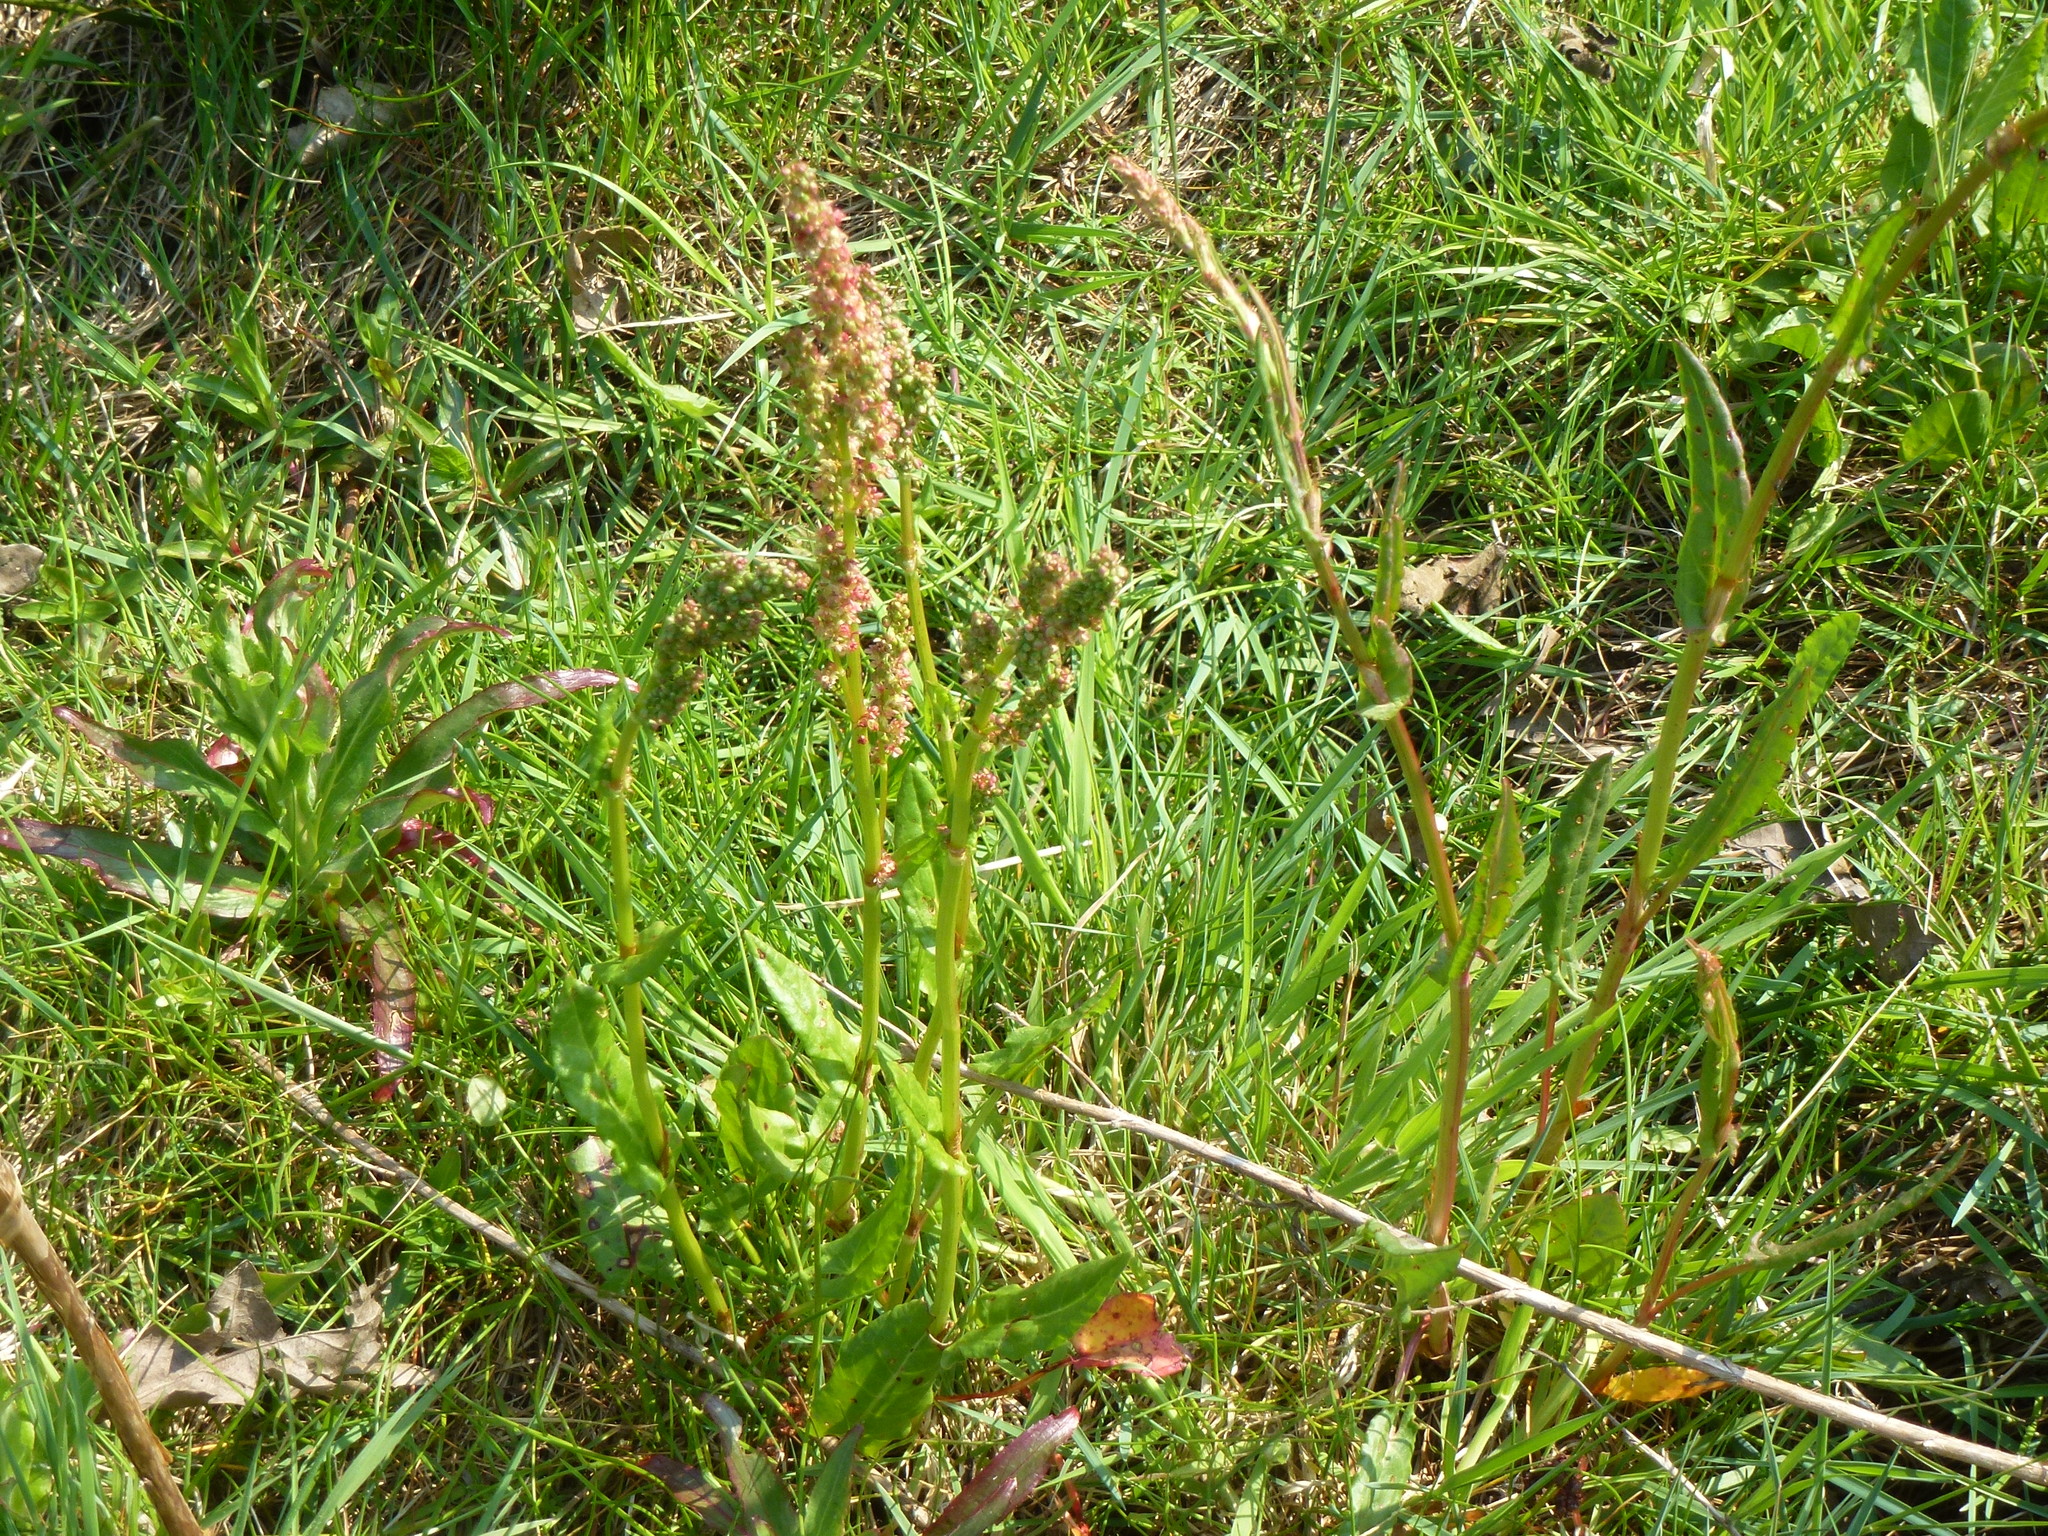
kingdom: Plantae
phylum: Tracheophyta
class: Magnoliopsida
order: Caryophyllales
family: Polygonaceae
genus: Rumex
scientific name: Rumex acetosa
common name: Garden sorrel
